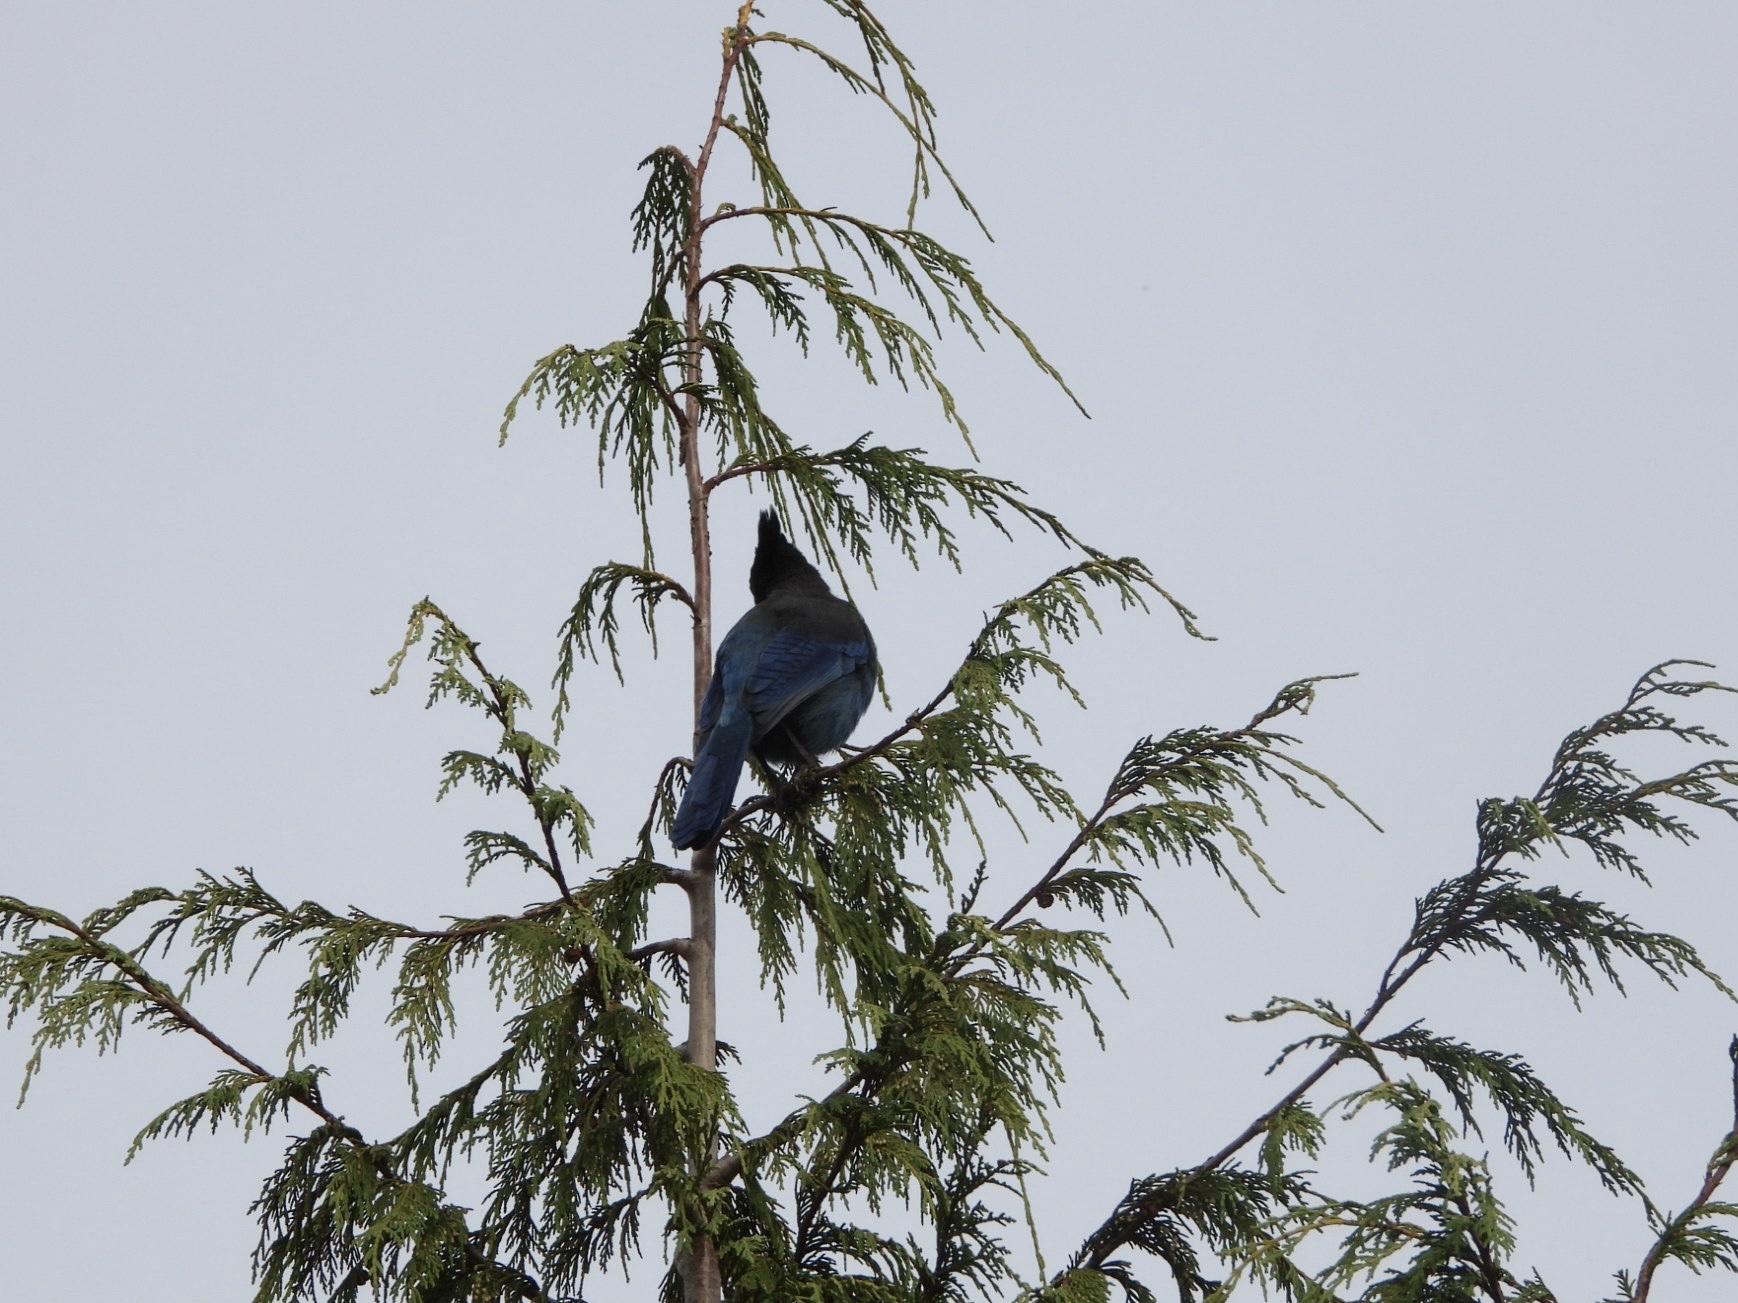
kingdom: Animalia
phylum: Chordata
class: Aves
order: Passeriformes
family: Corvidae
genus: Cyanocitta
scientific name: Cyanocitta stelleri
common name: Steller's jay
